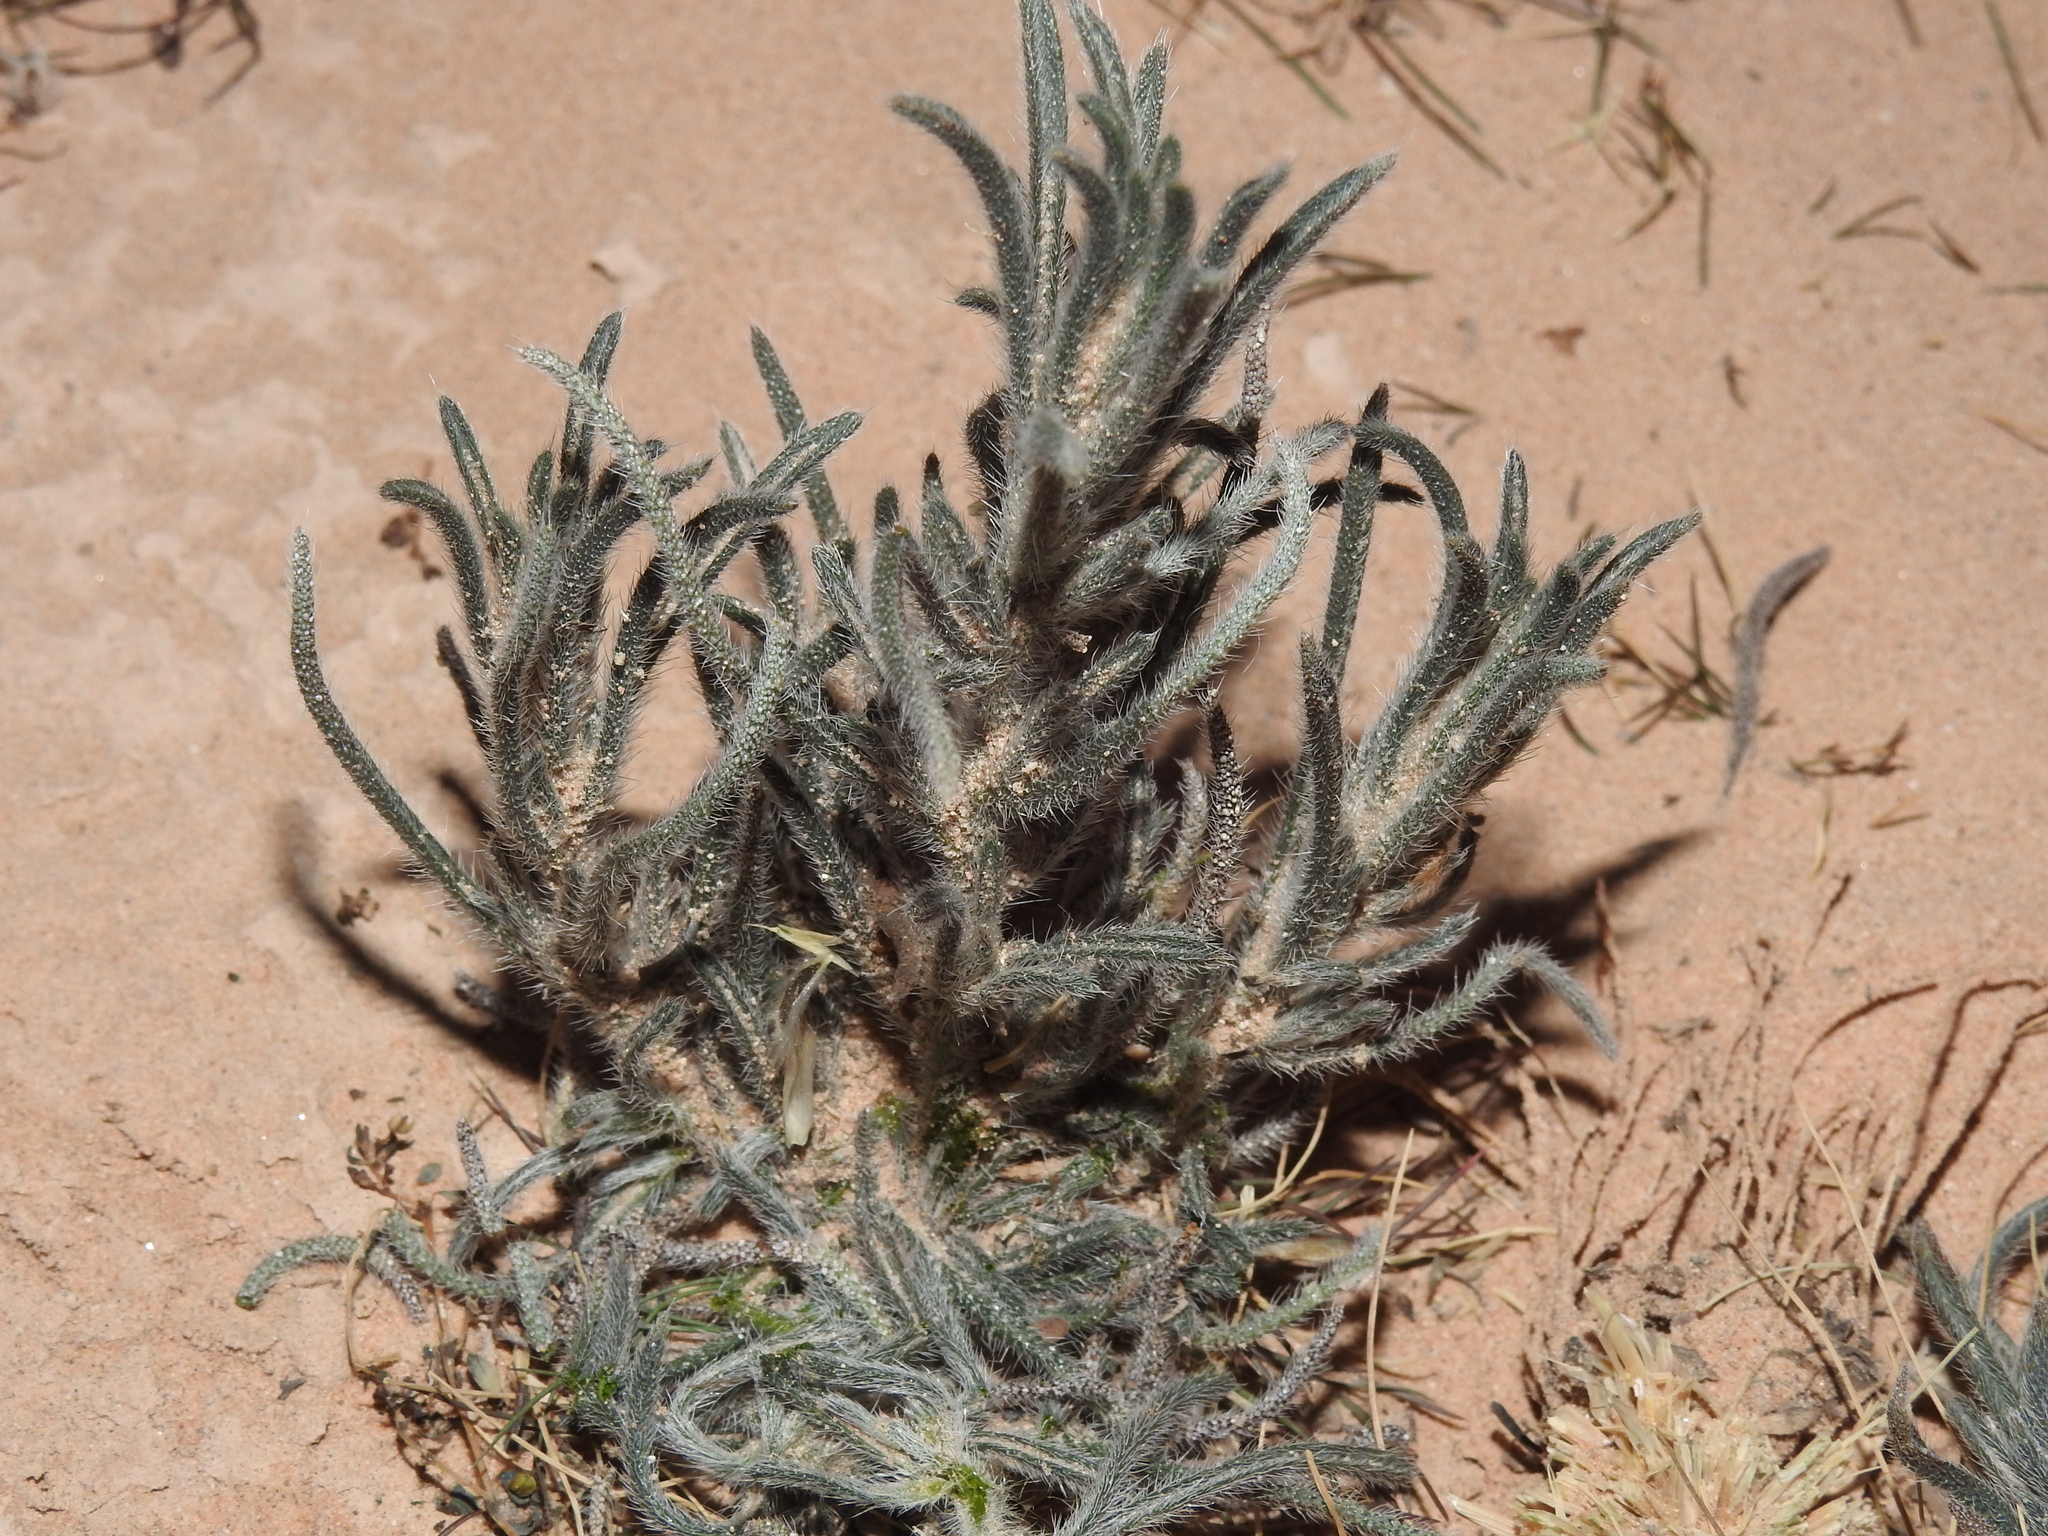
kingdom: Plantae
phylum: Tracheophyta
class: Magnoliopsida
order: Boraginales
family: Boraginaceae
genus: Johnstonella
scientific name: Johnstonella angustifolia
